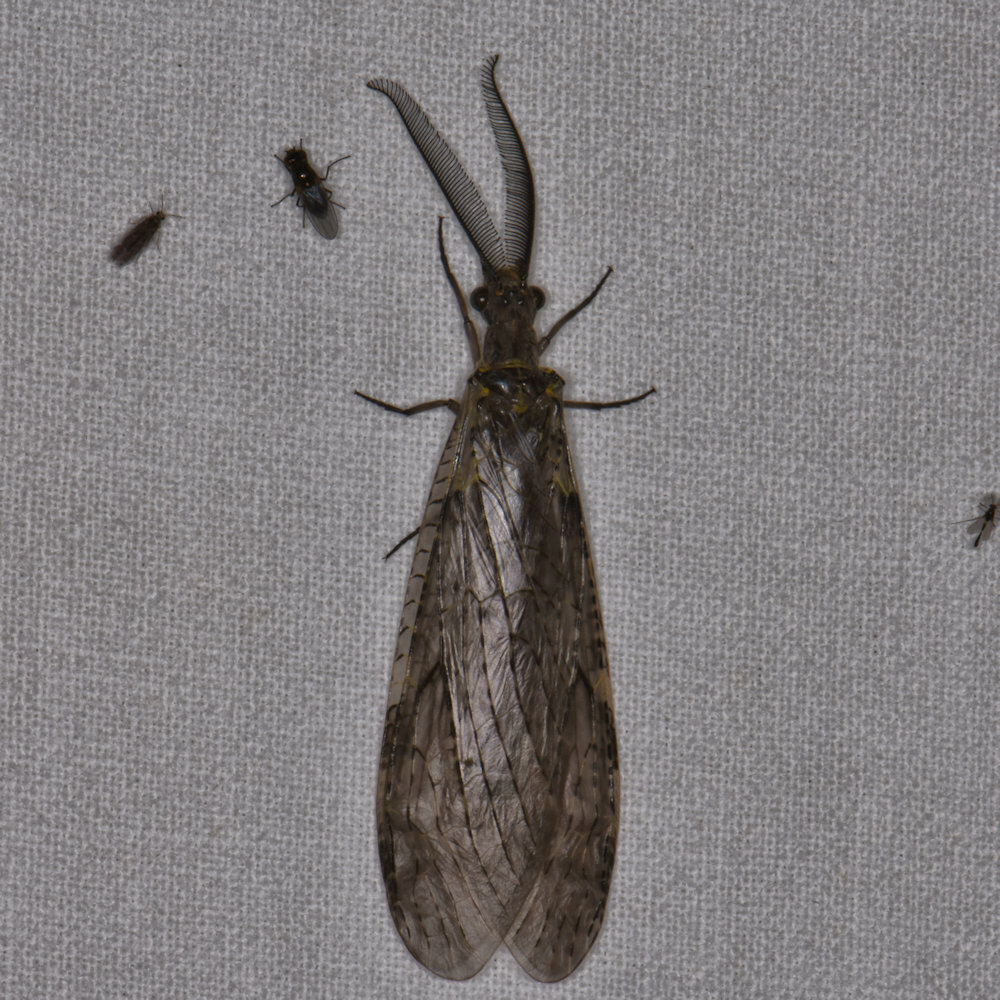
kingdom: Animalia
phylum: Arthropoda
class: Insecta
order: Megaloptera
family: Corydalidae
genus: Chauliodes
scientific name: Chauliodes rastricornis
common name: Spring fishfly
